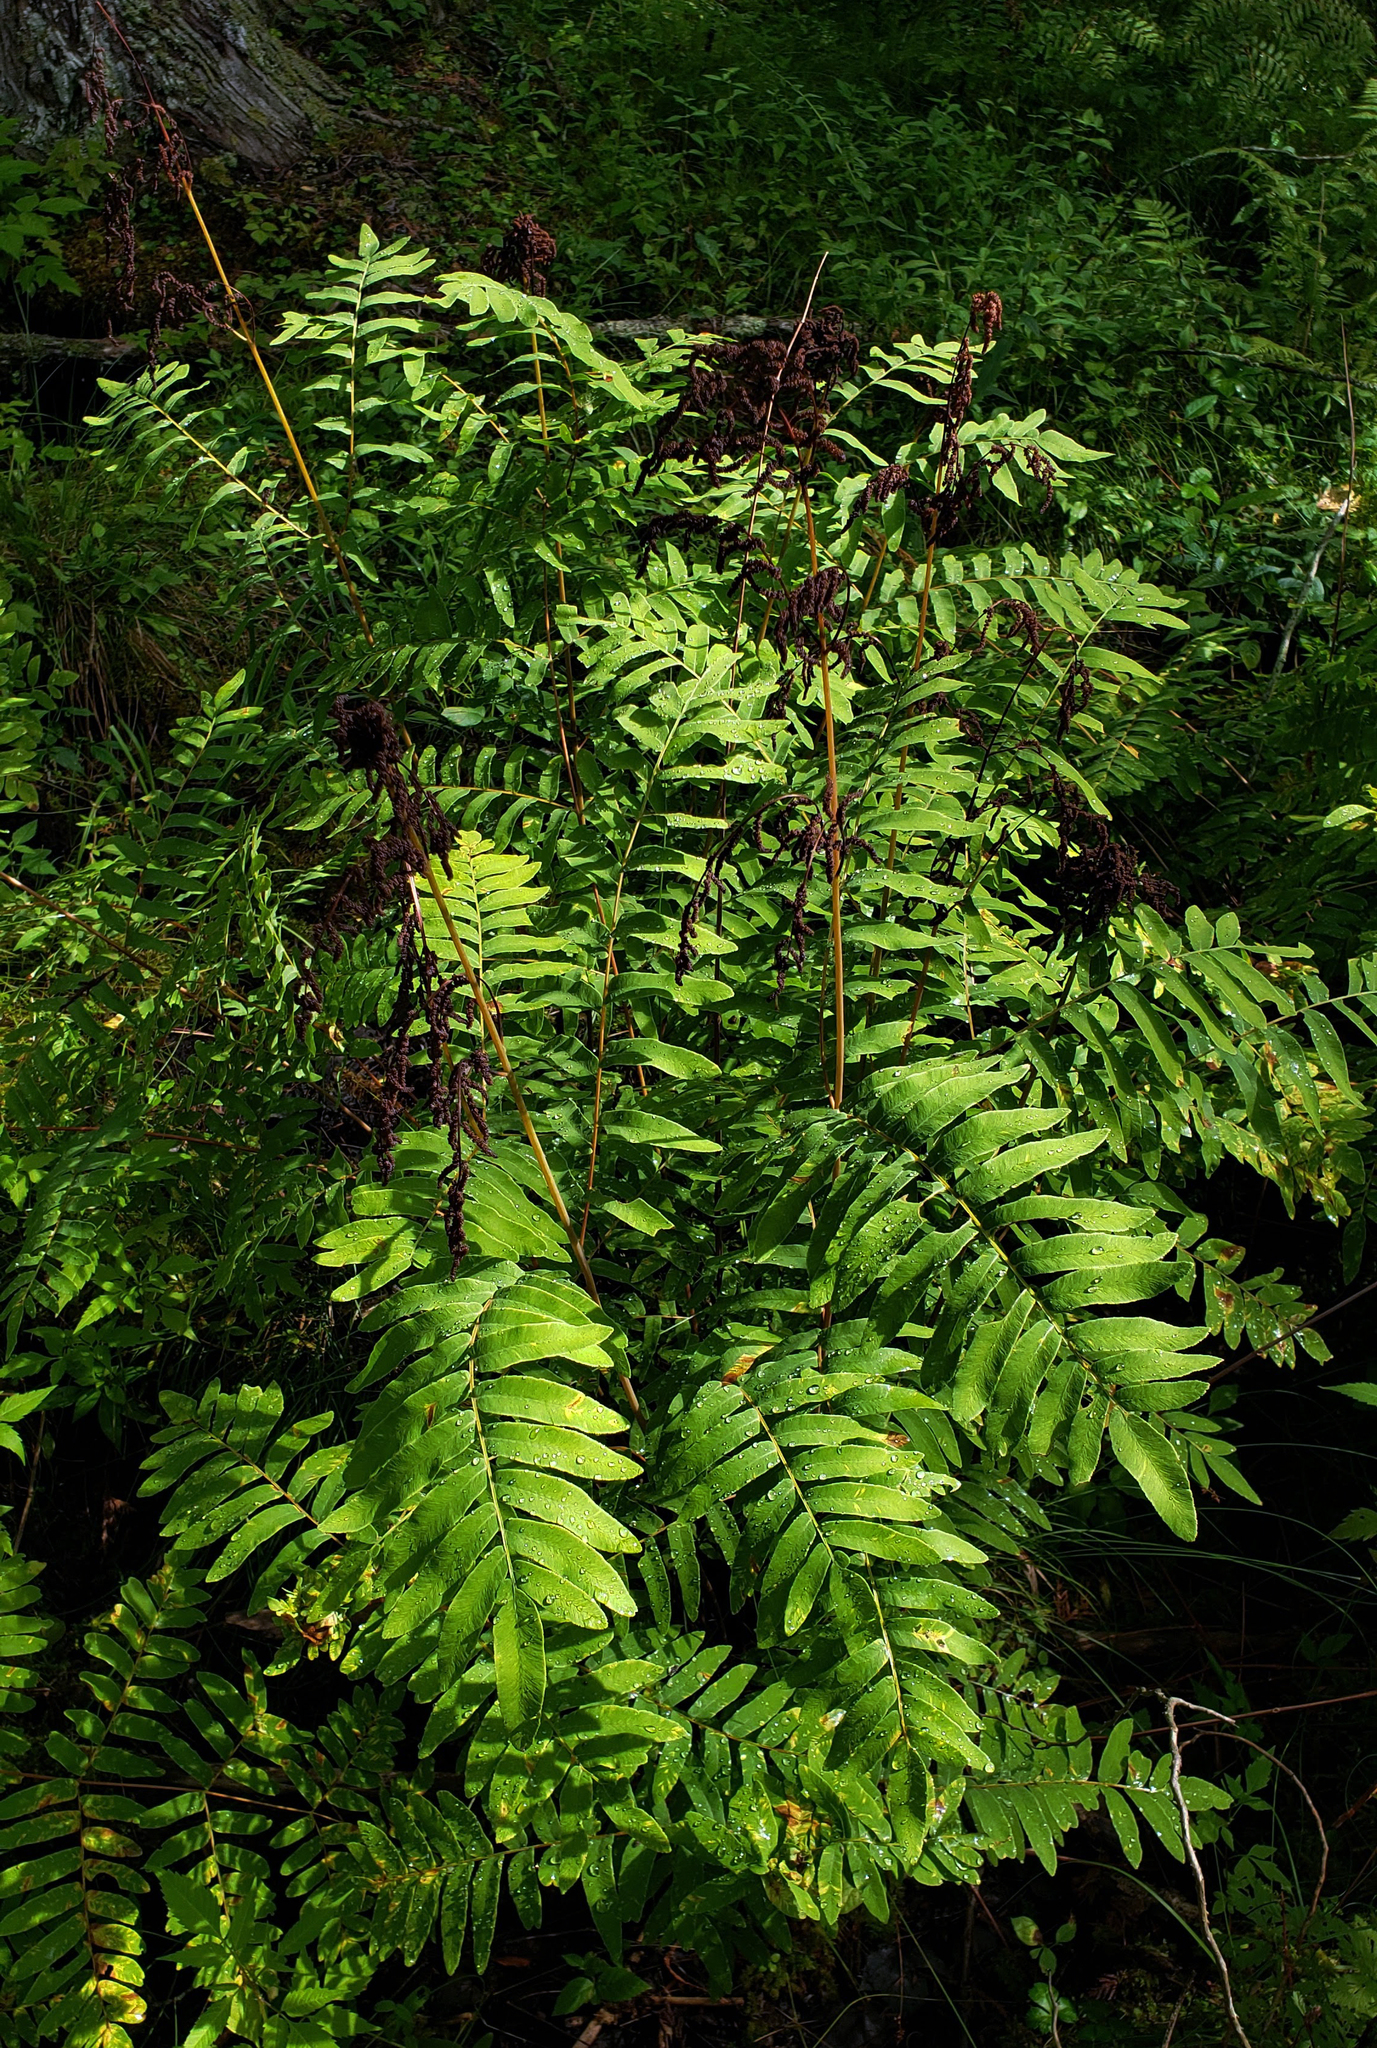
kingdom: Plantae
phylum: Tracheophyta
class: Polypodiopsida
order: Osmundales
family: Osmundaceae
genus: Osmunda
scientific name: Osmunda spectabilis
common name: American royal fern
